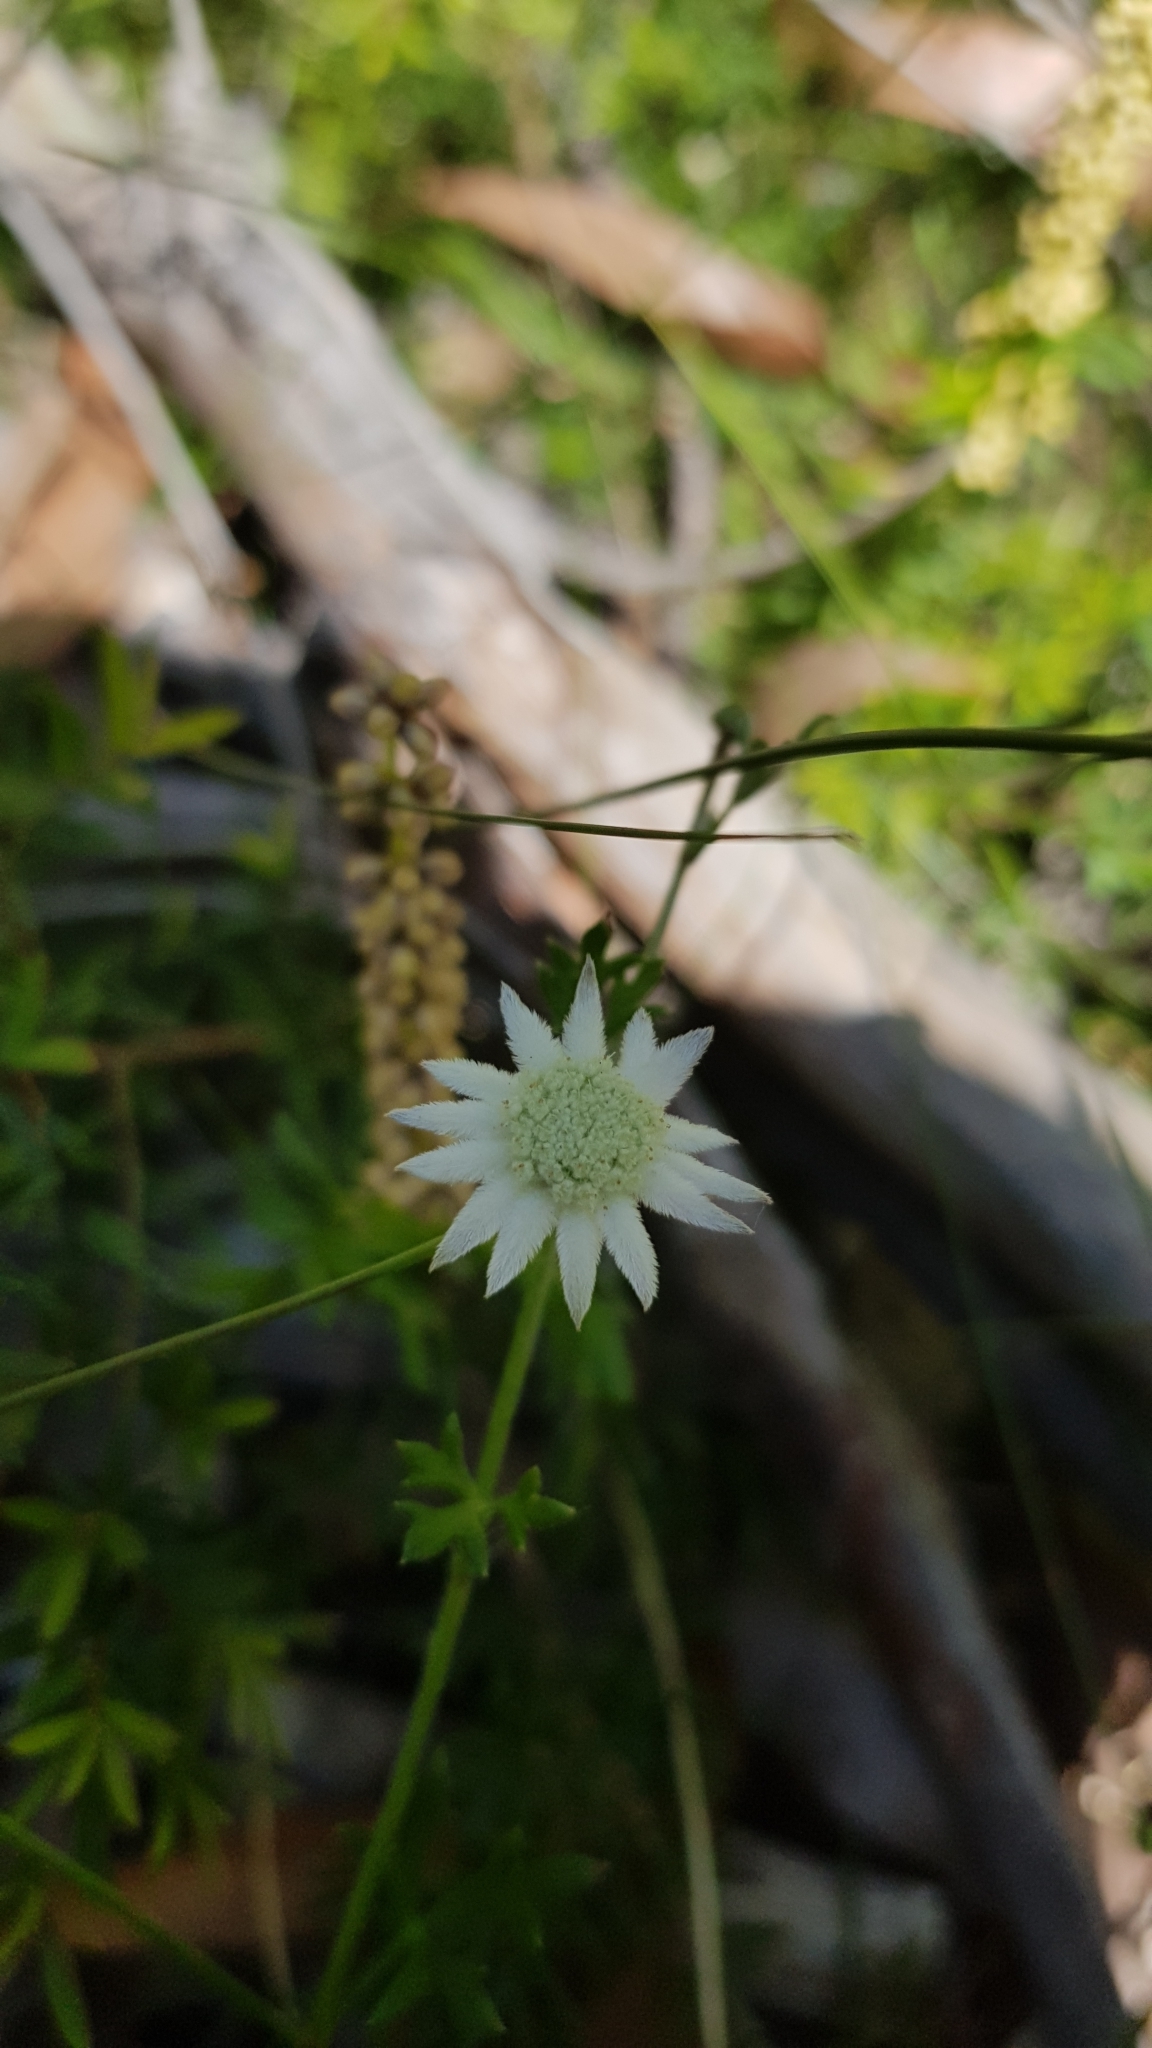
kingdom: Plantae
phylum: Tracheophyta
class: Magnoliopsida
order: Apiales
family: Apiaceae
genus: Actinotus
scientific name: Actinotus minor
